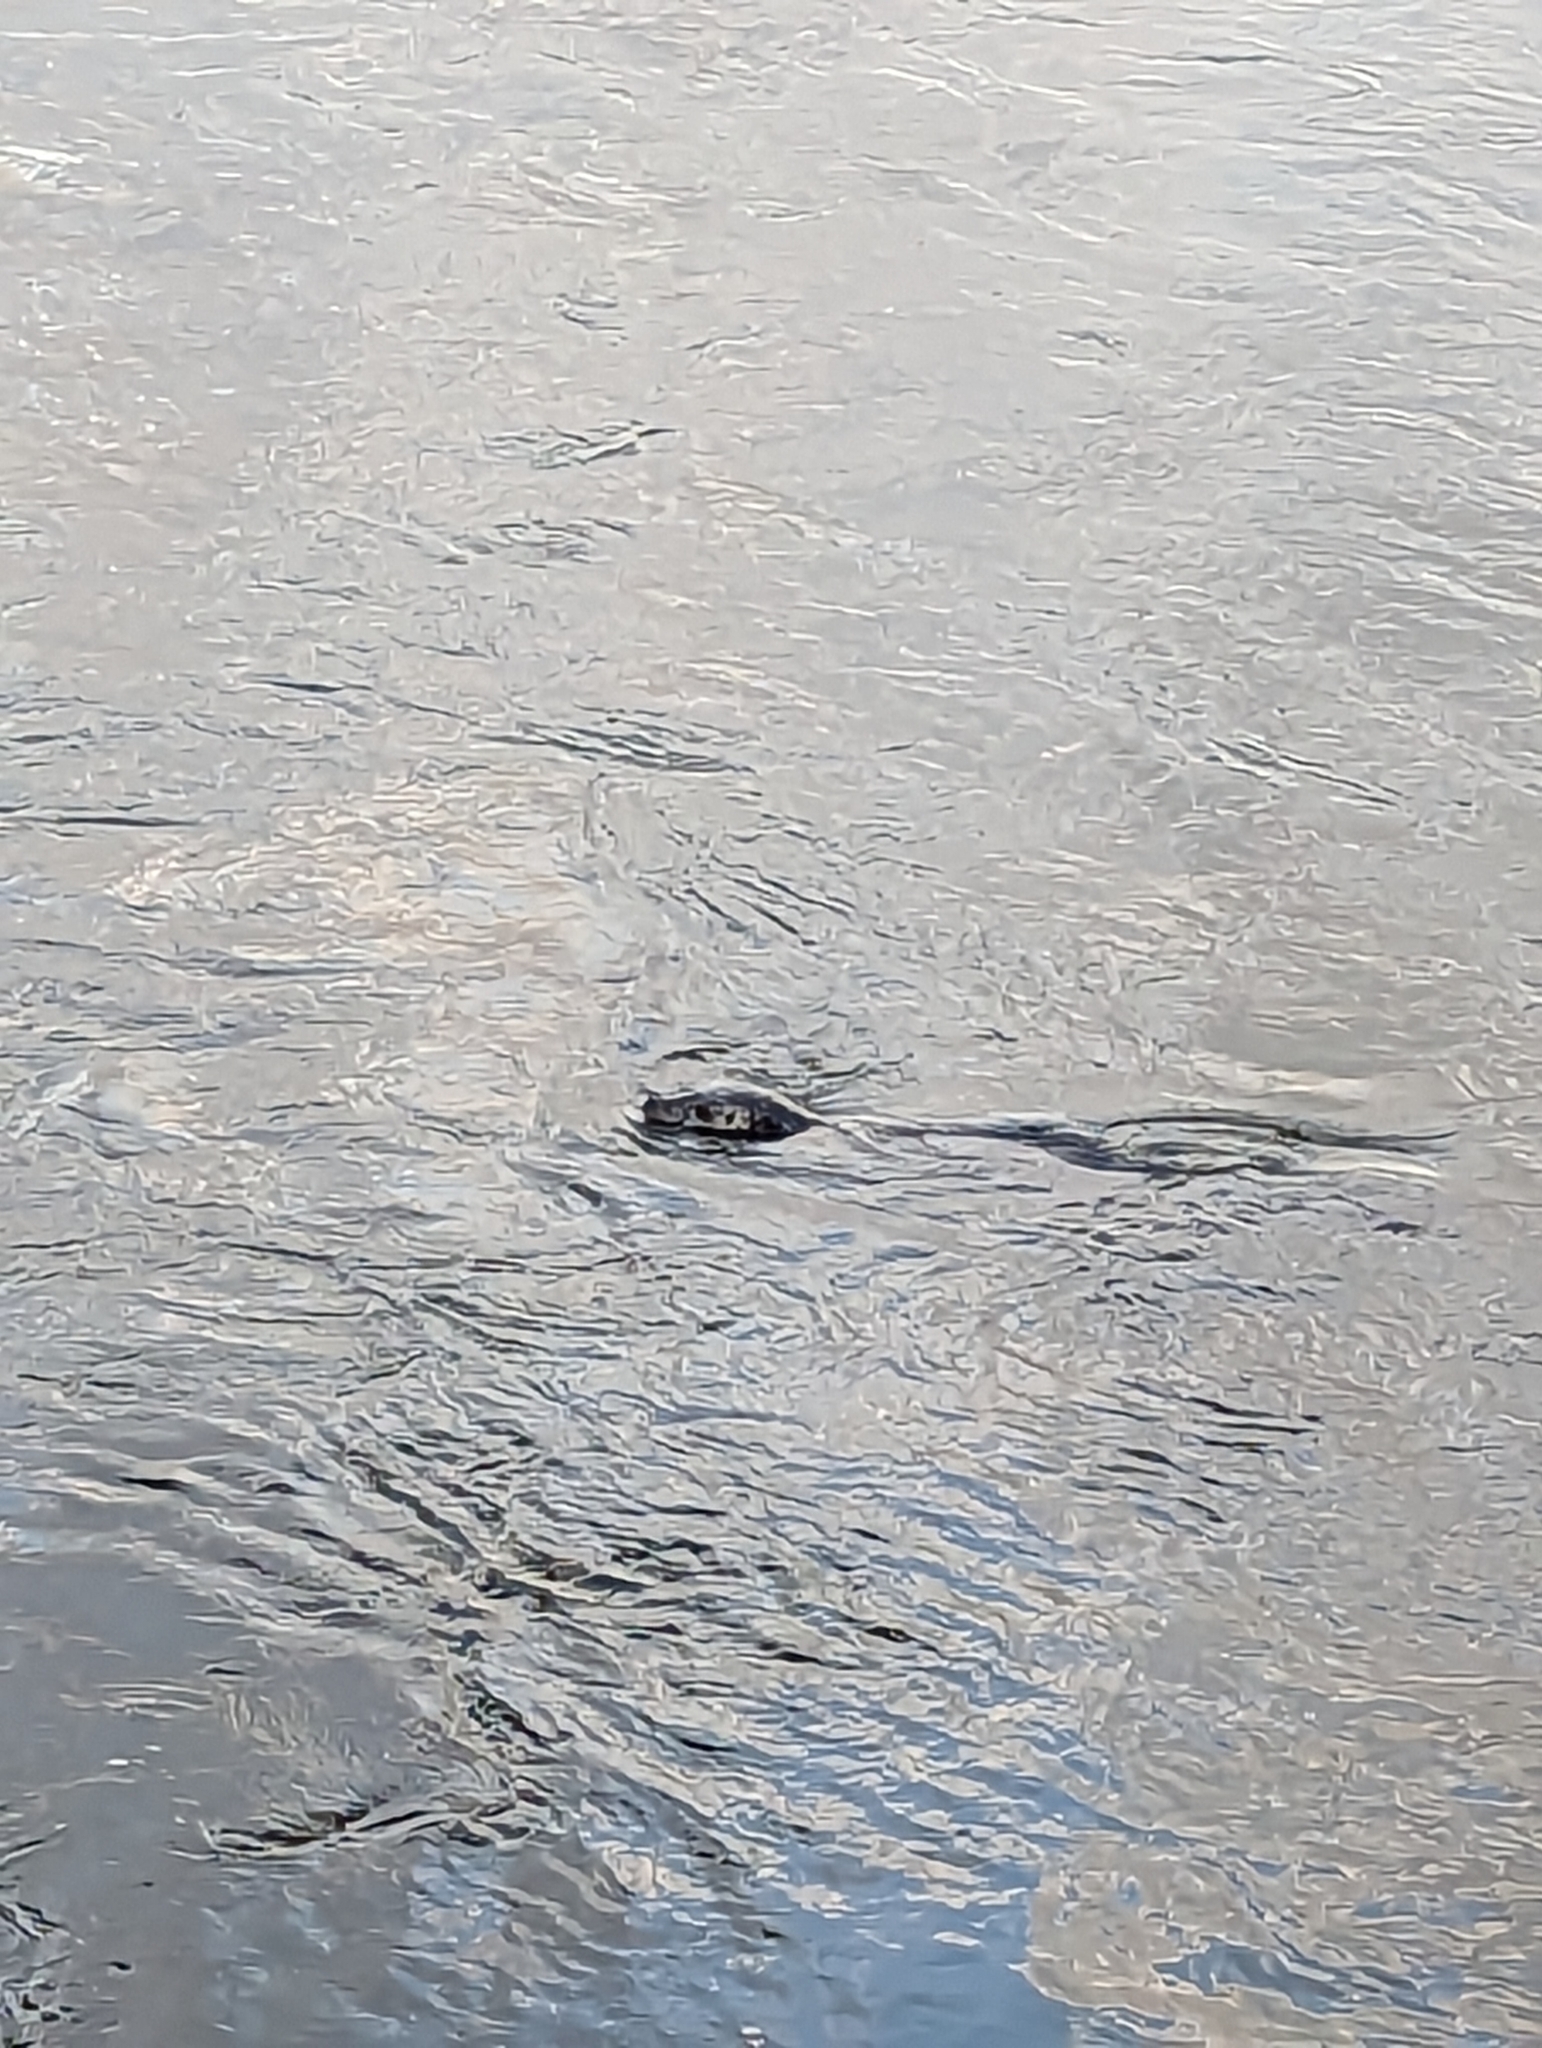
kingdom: Animalia
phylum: Chordata
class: Mammalia
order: Carnivora
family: Phocidae
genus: Phoca
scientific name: Phoca vitulina
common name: Harbor seal
